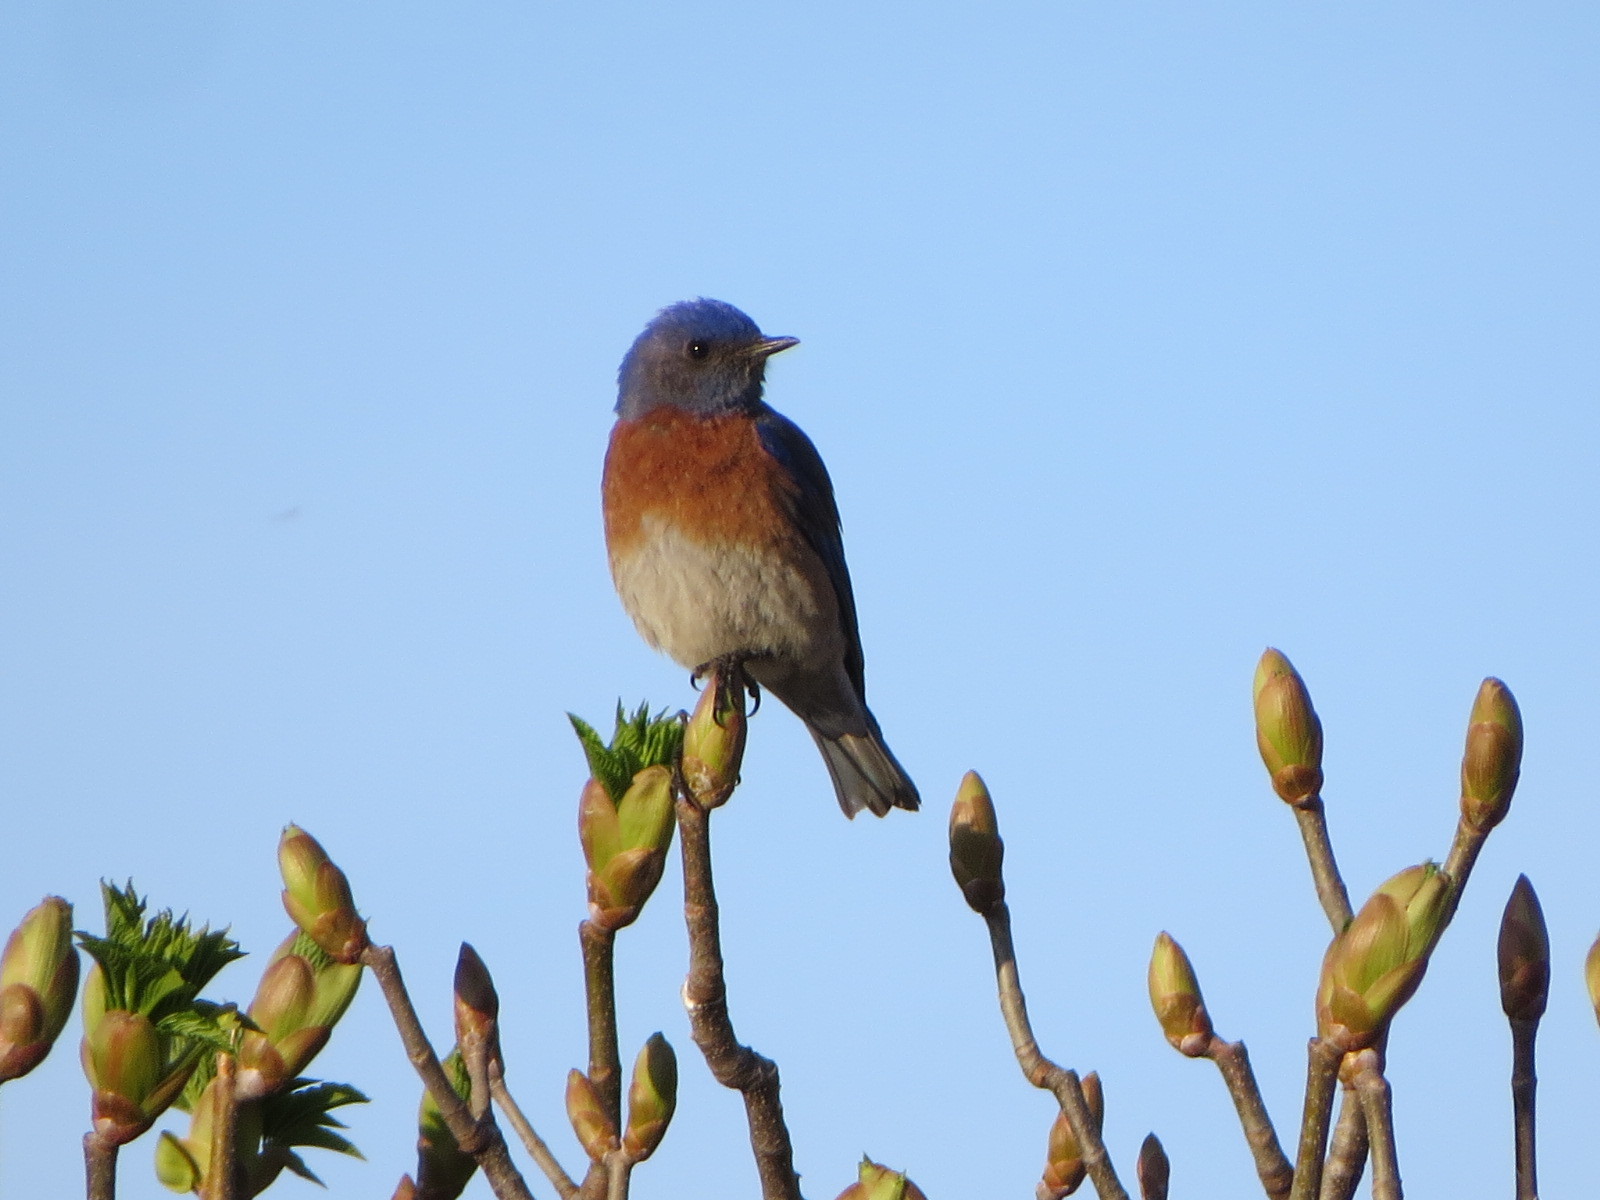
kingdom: Animalia
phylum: Chordata
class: Aves
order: Passeriformes
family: Turdidae
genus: Sialia
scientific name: Sialia mexicana
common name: Western bluebird
